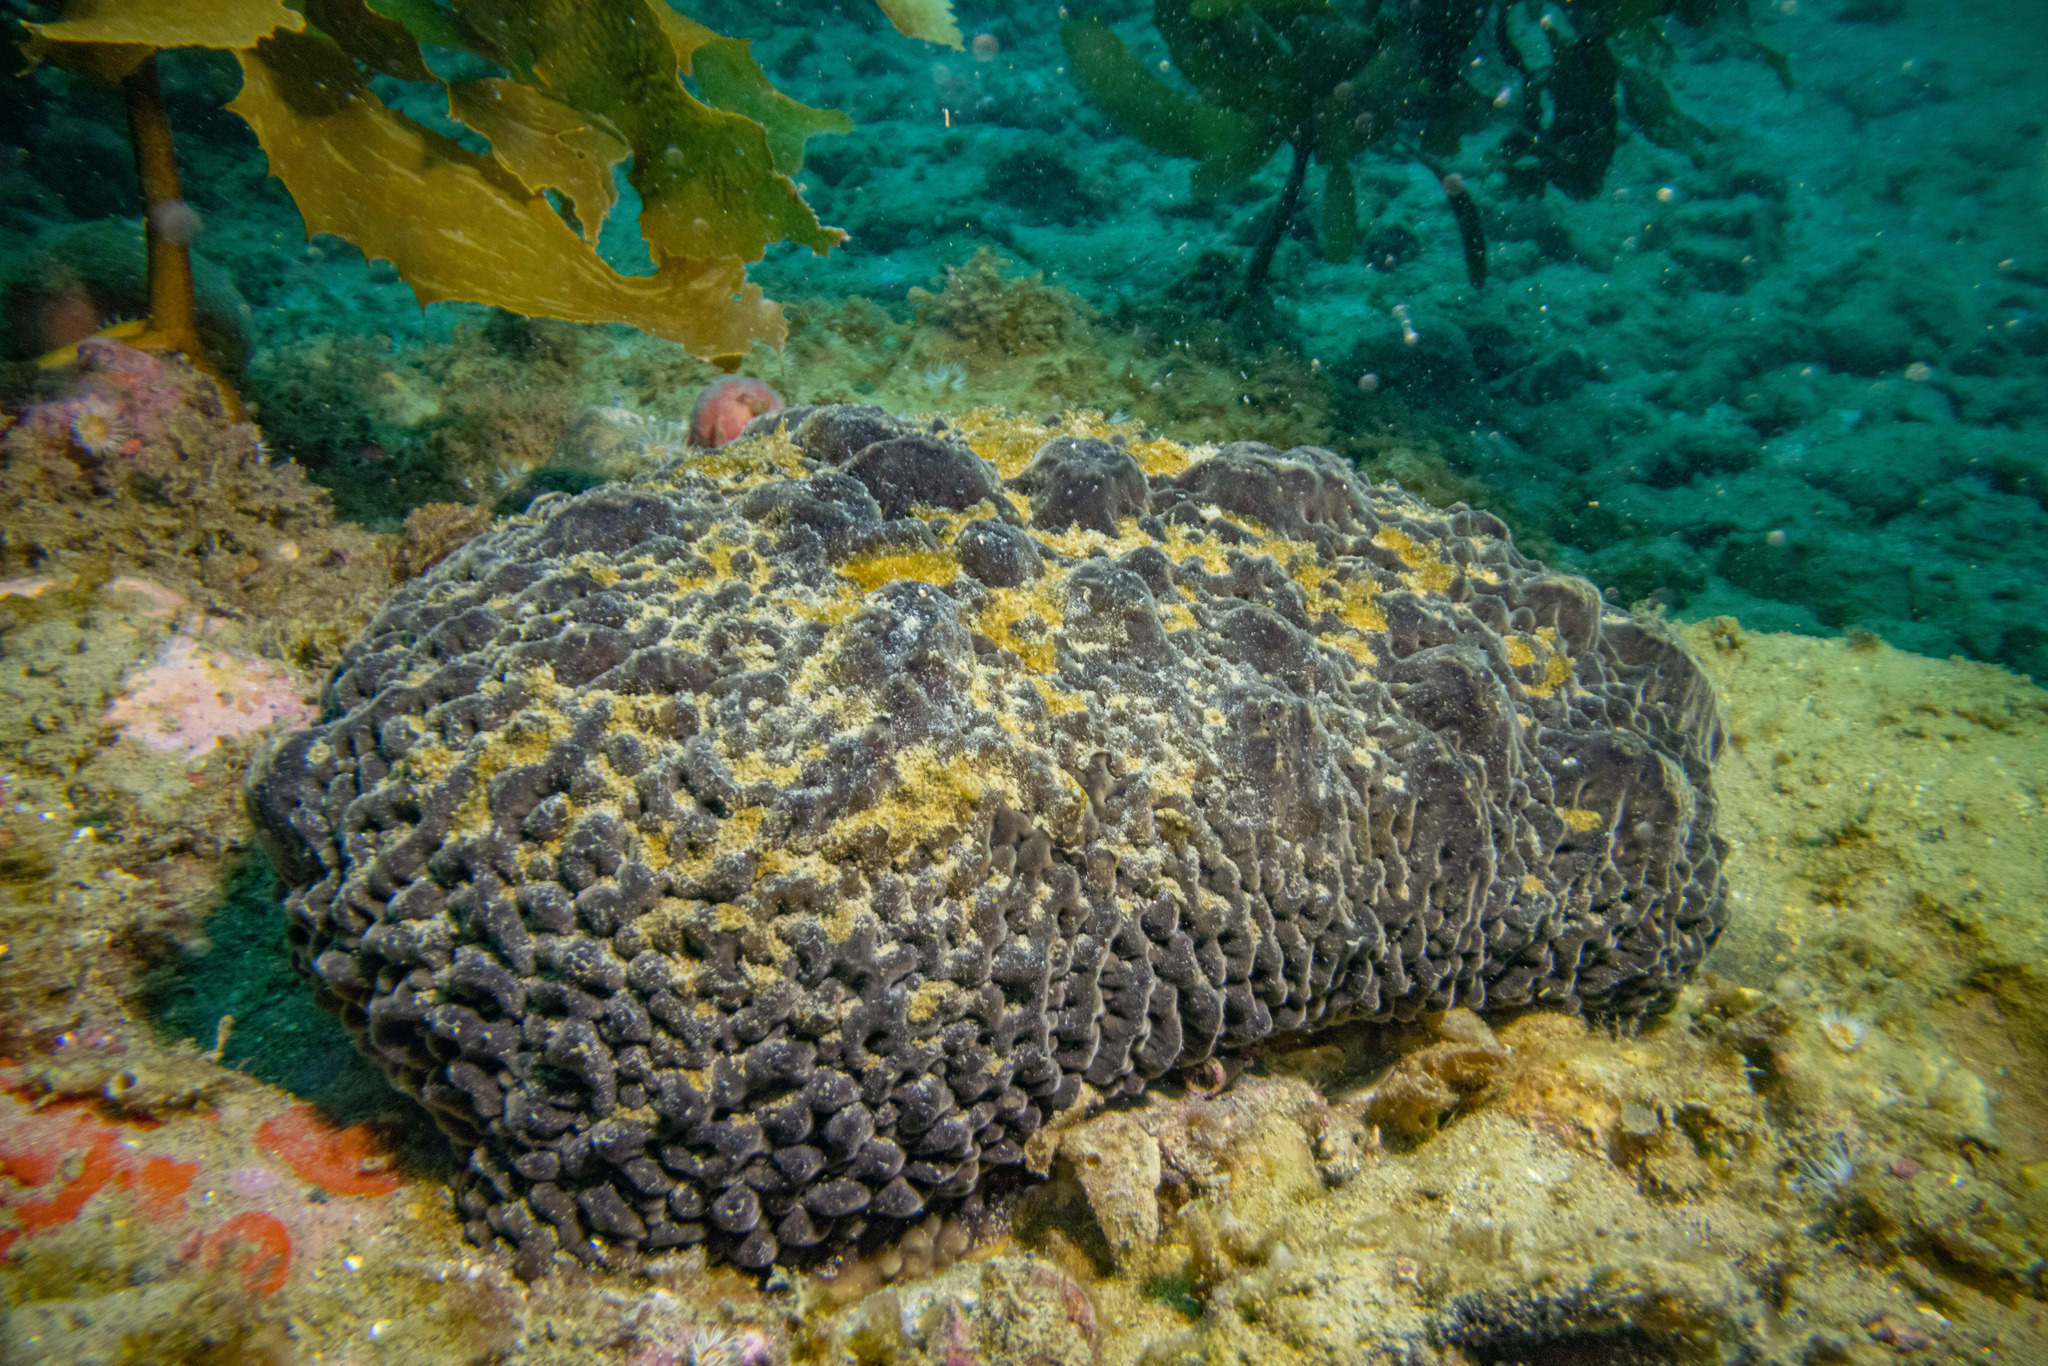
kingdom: Animalia
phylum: Porifera
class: Demospongiae
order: Polymastiida
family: Polymastiidae
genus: Polymastia
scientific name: Polymastia massalis
